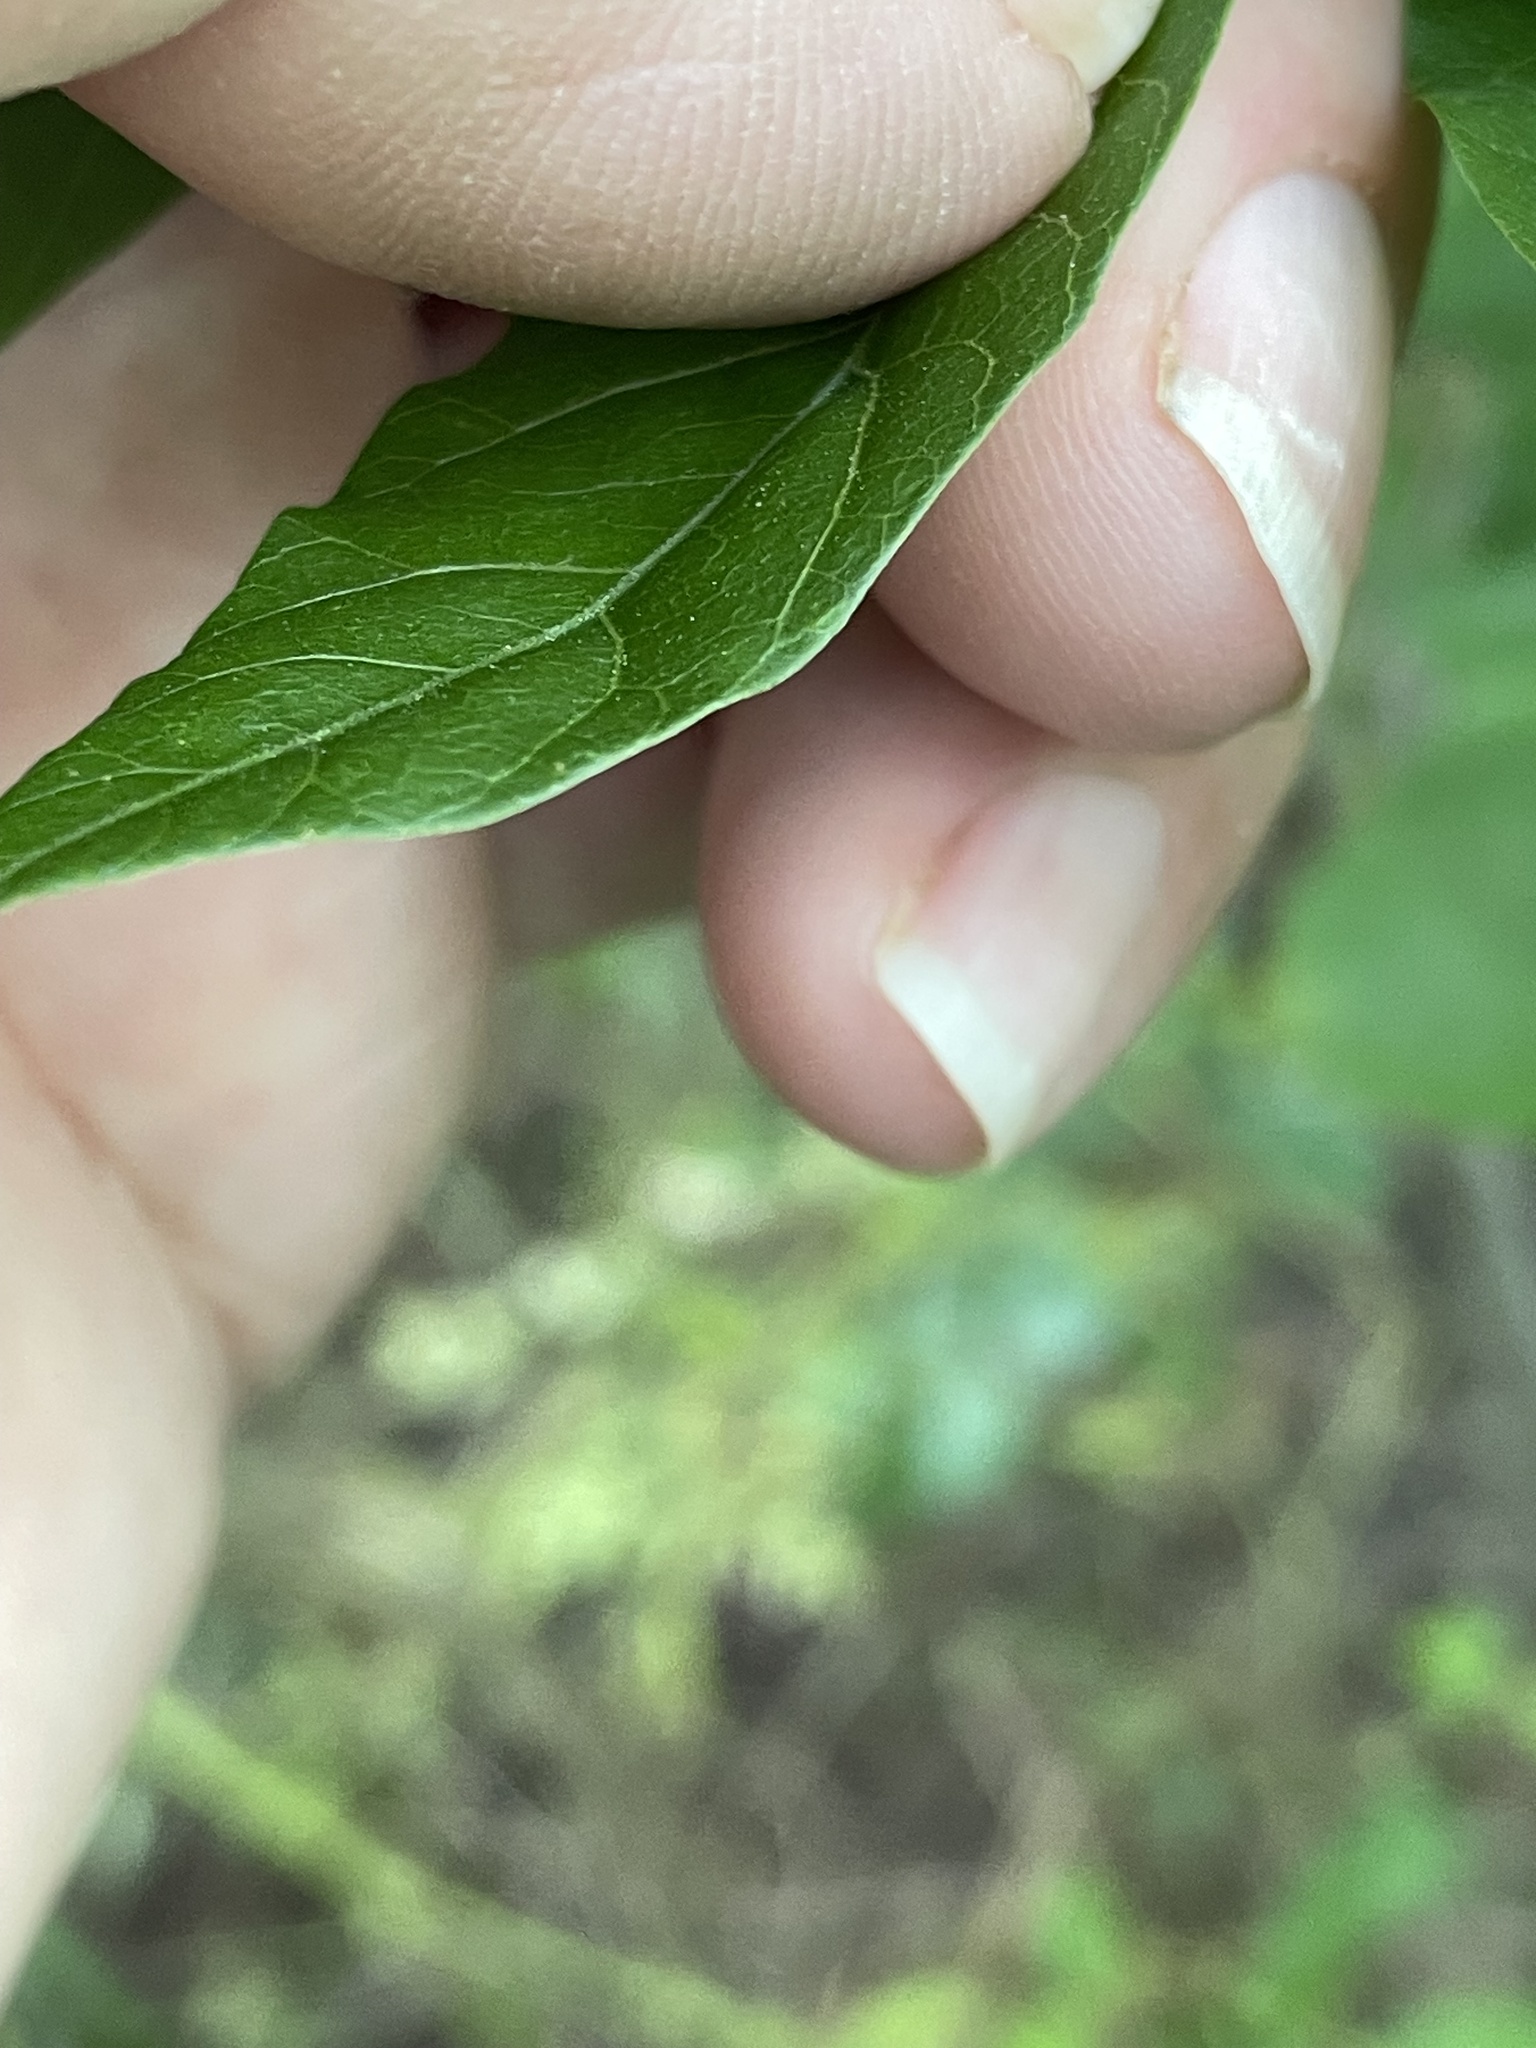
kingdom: Plantae
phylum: Tracheophyta
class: Magnoliopsida
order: Sapindales
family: Anacardiaceae
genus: Pistacia
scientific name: Pistacia chinensis
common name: Chinese pistache
